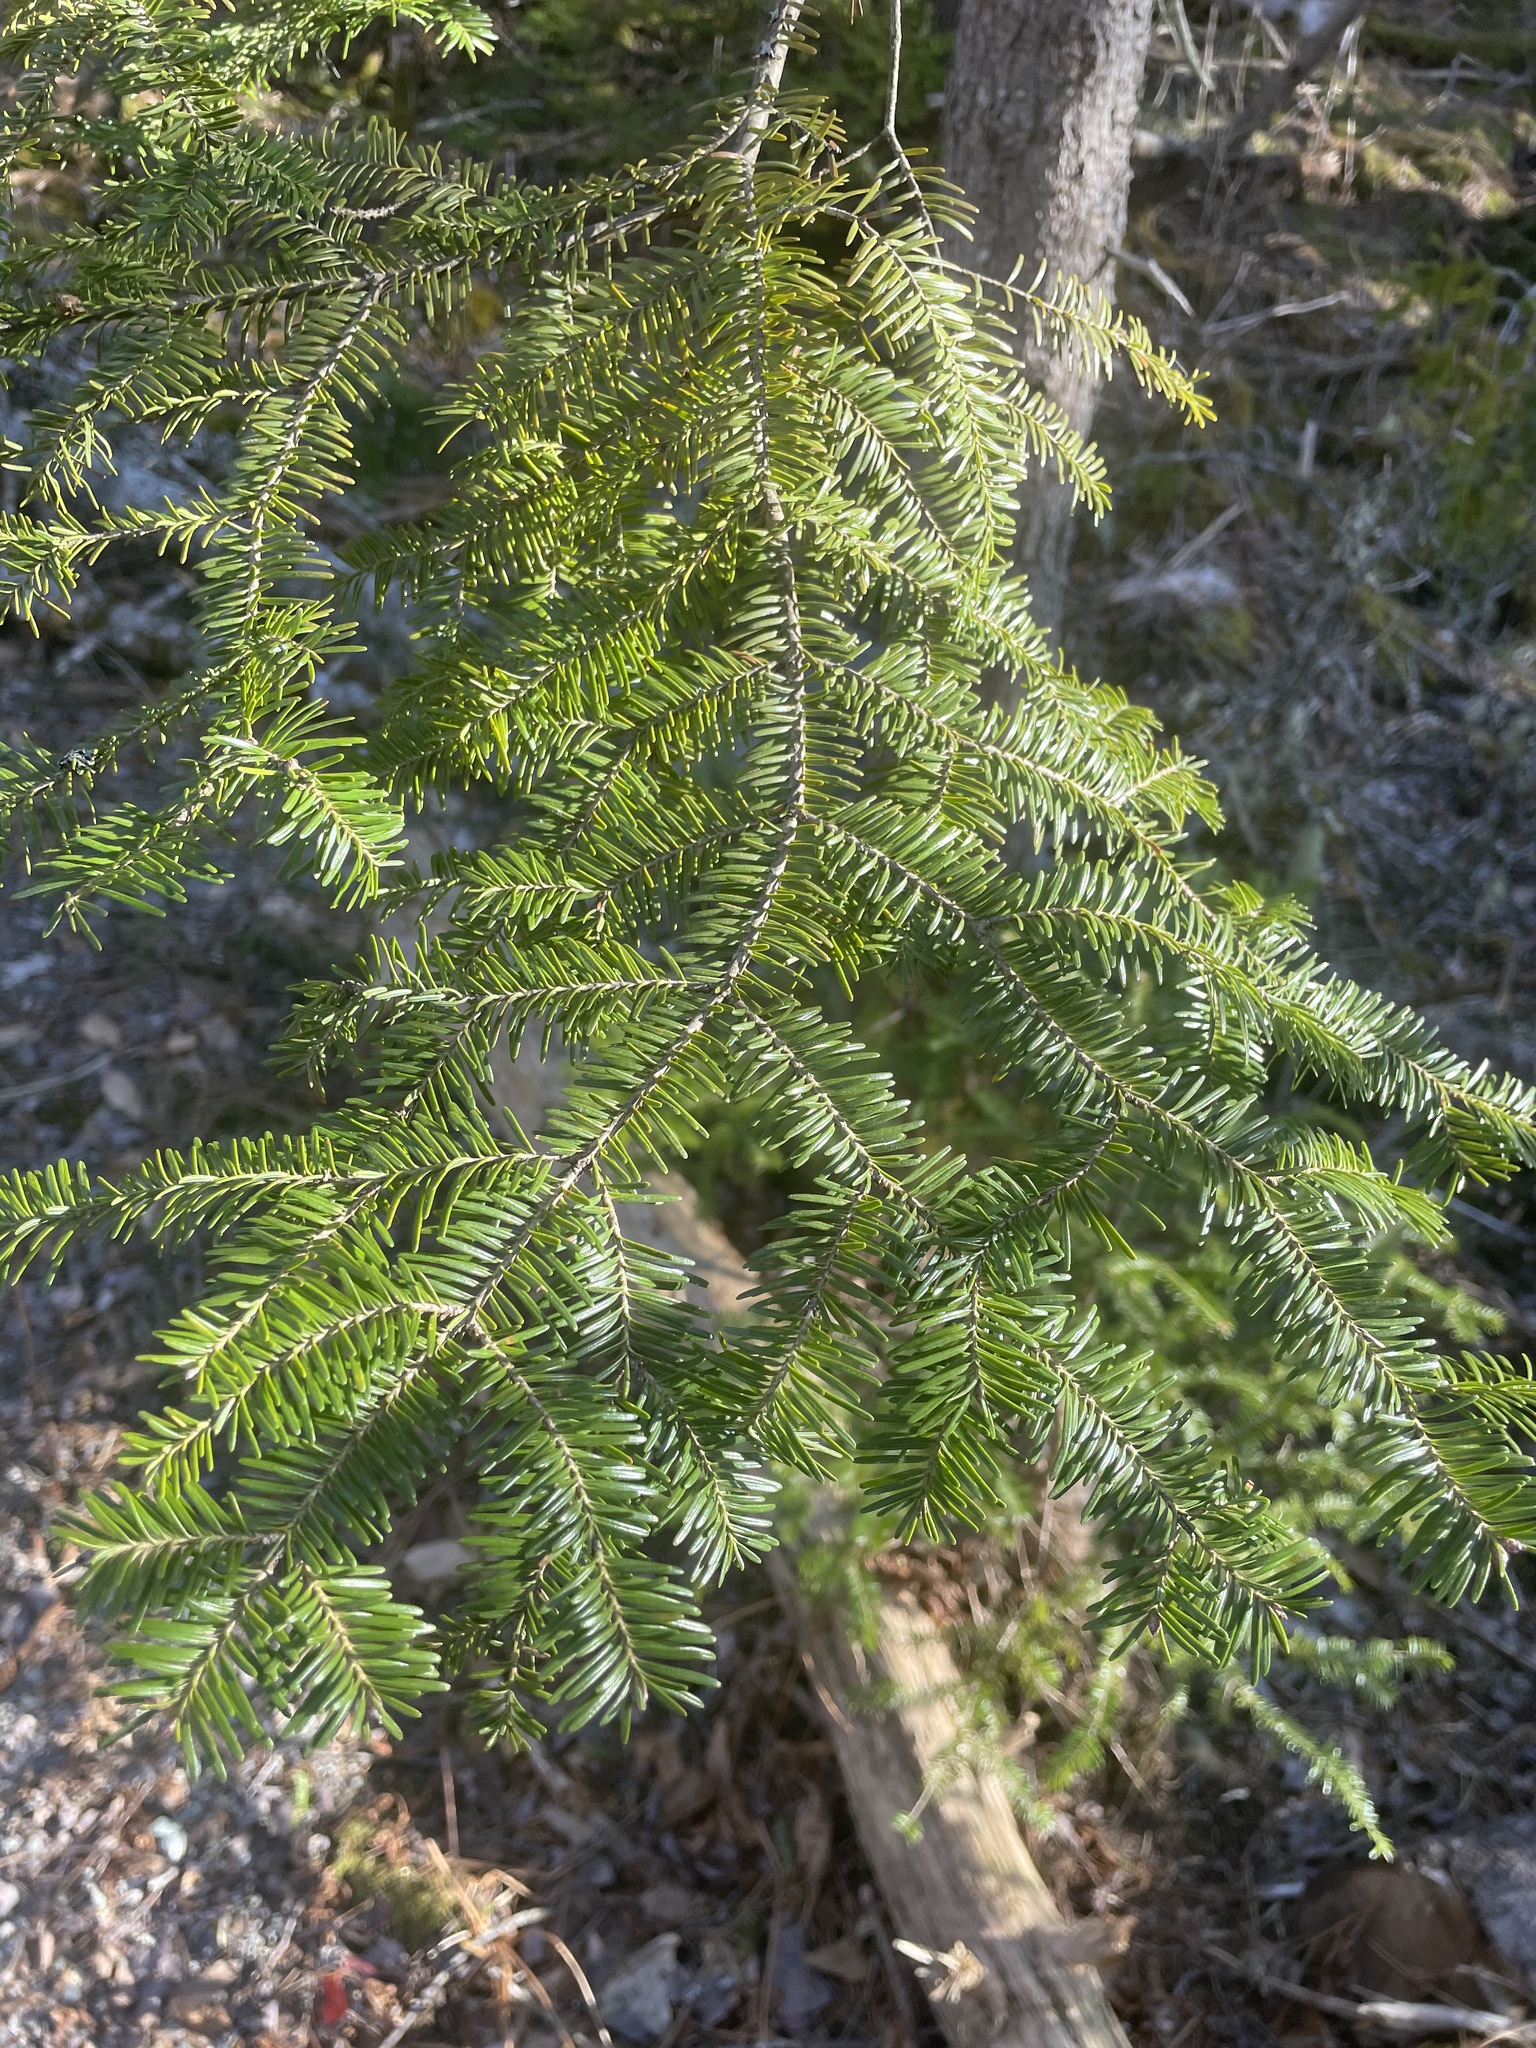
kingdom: Plantae
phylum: Tracheophyta
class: Pinopsida
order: Pinales
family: Pinaceae
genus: Abies
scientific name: Abies balsamea
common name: Balsam fir
